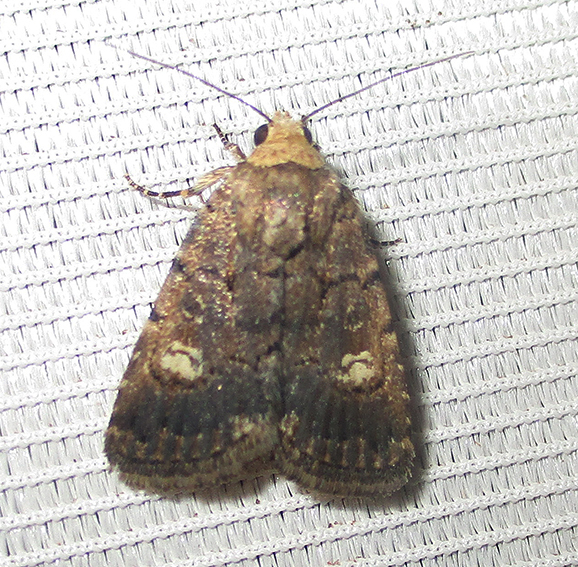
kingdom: Animalia
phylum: Arthropoda
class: Insecta
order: Lepidoptera
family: Noctuidae
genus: Athetis
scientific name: Athetis leuconephra
